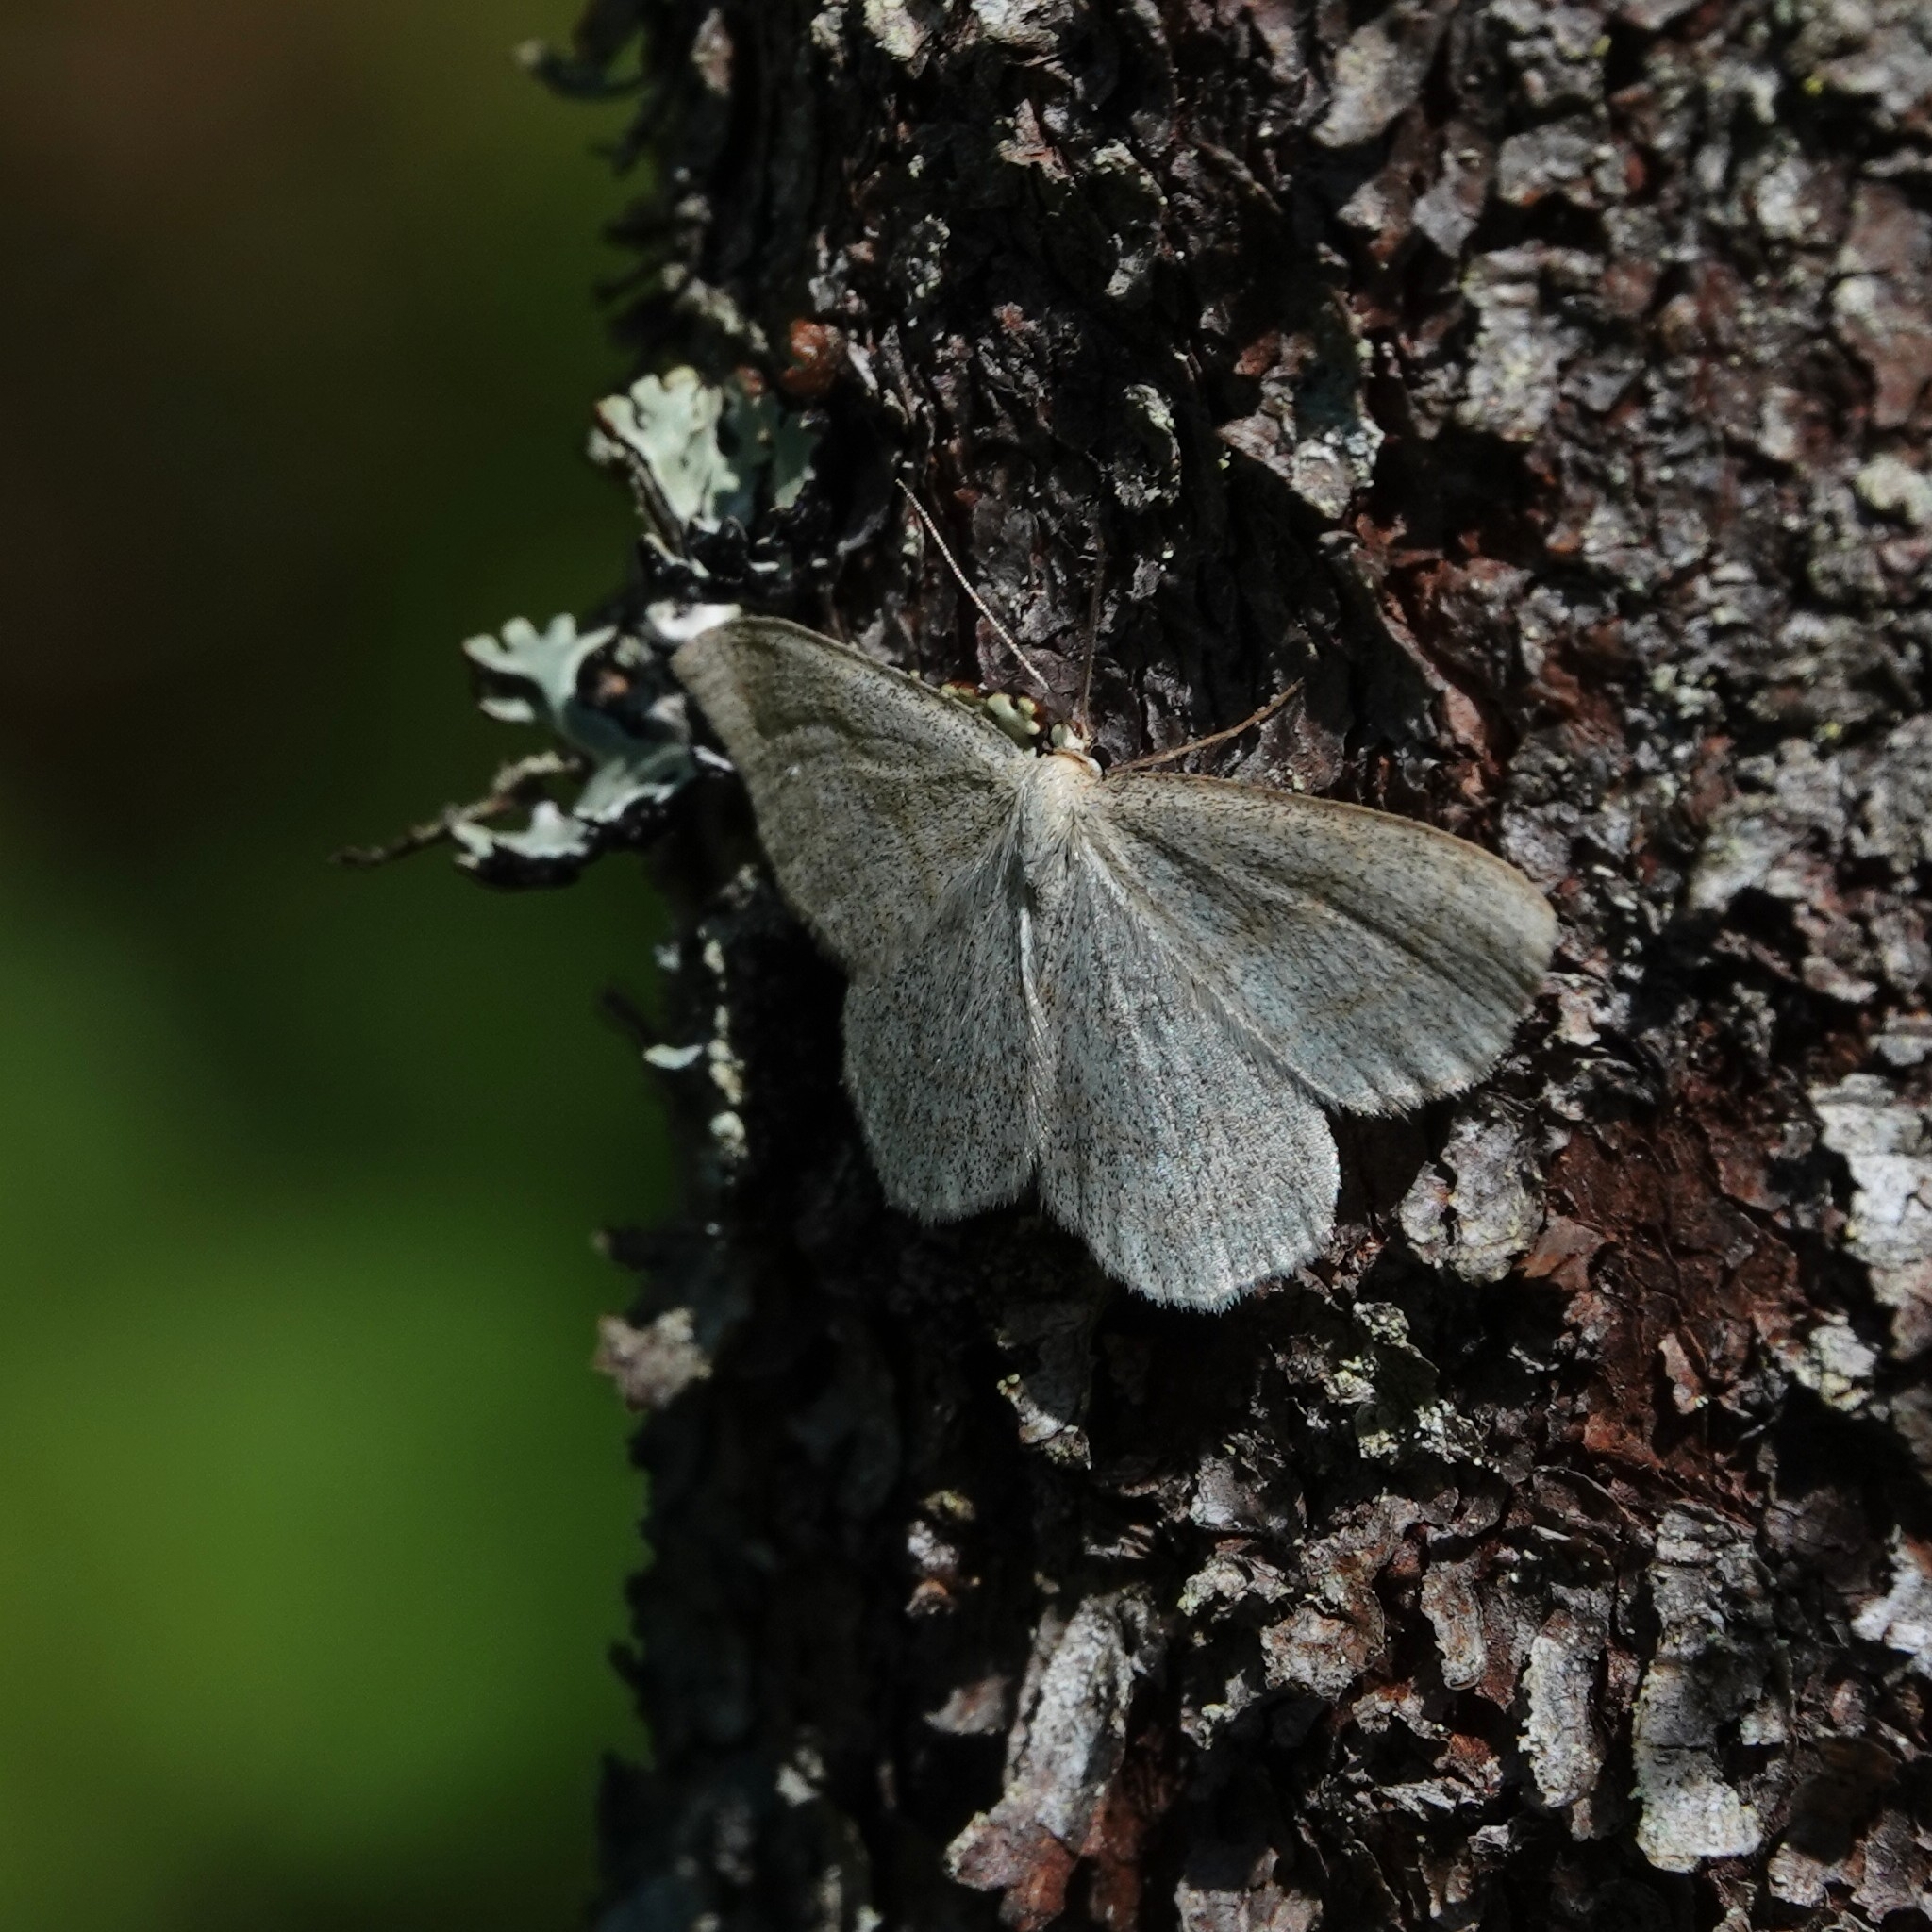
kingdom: Animalia
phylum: Arthropoda
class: Insecta
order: Lepidoptera
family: Geometridae
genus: Scopula
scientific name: Scopula ternata
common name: Smoky wave
